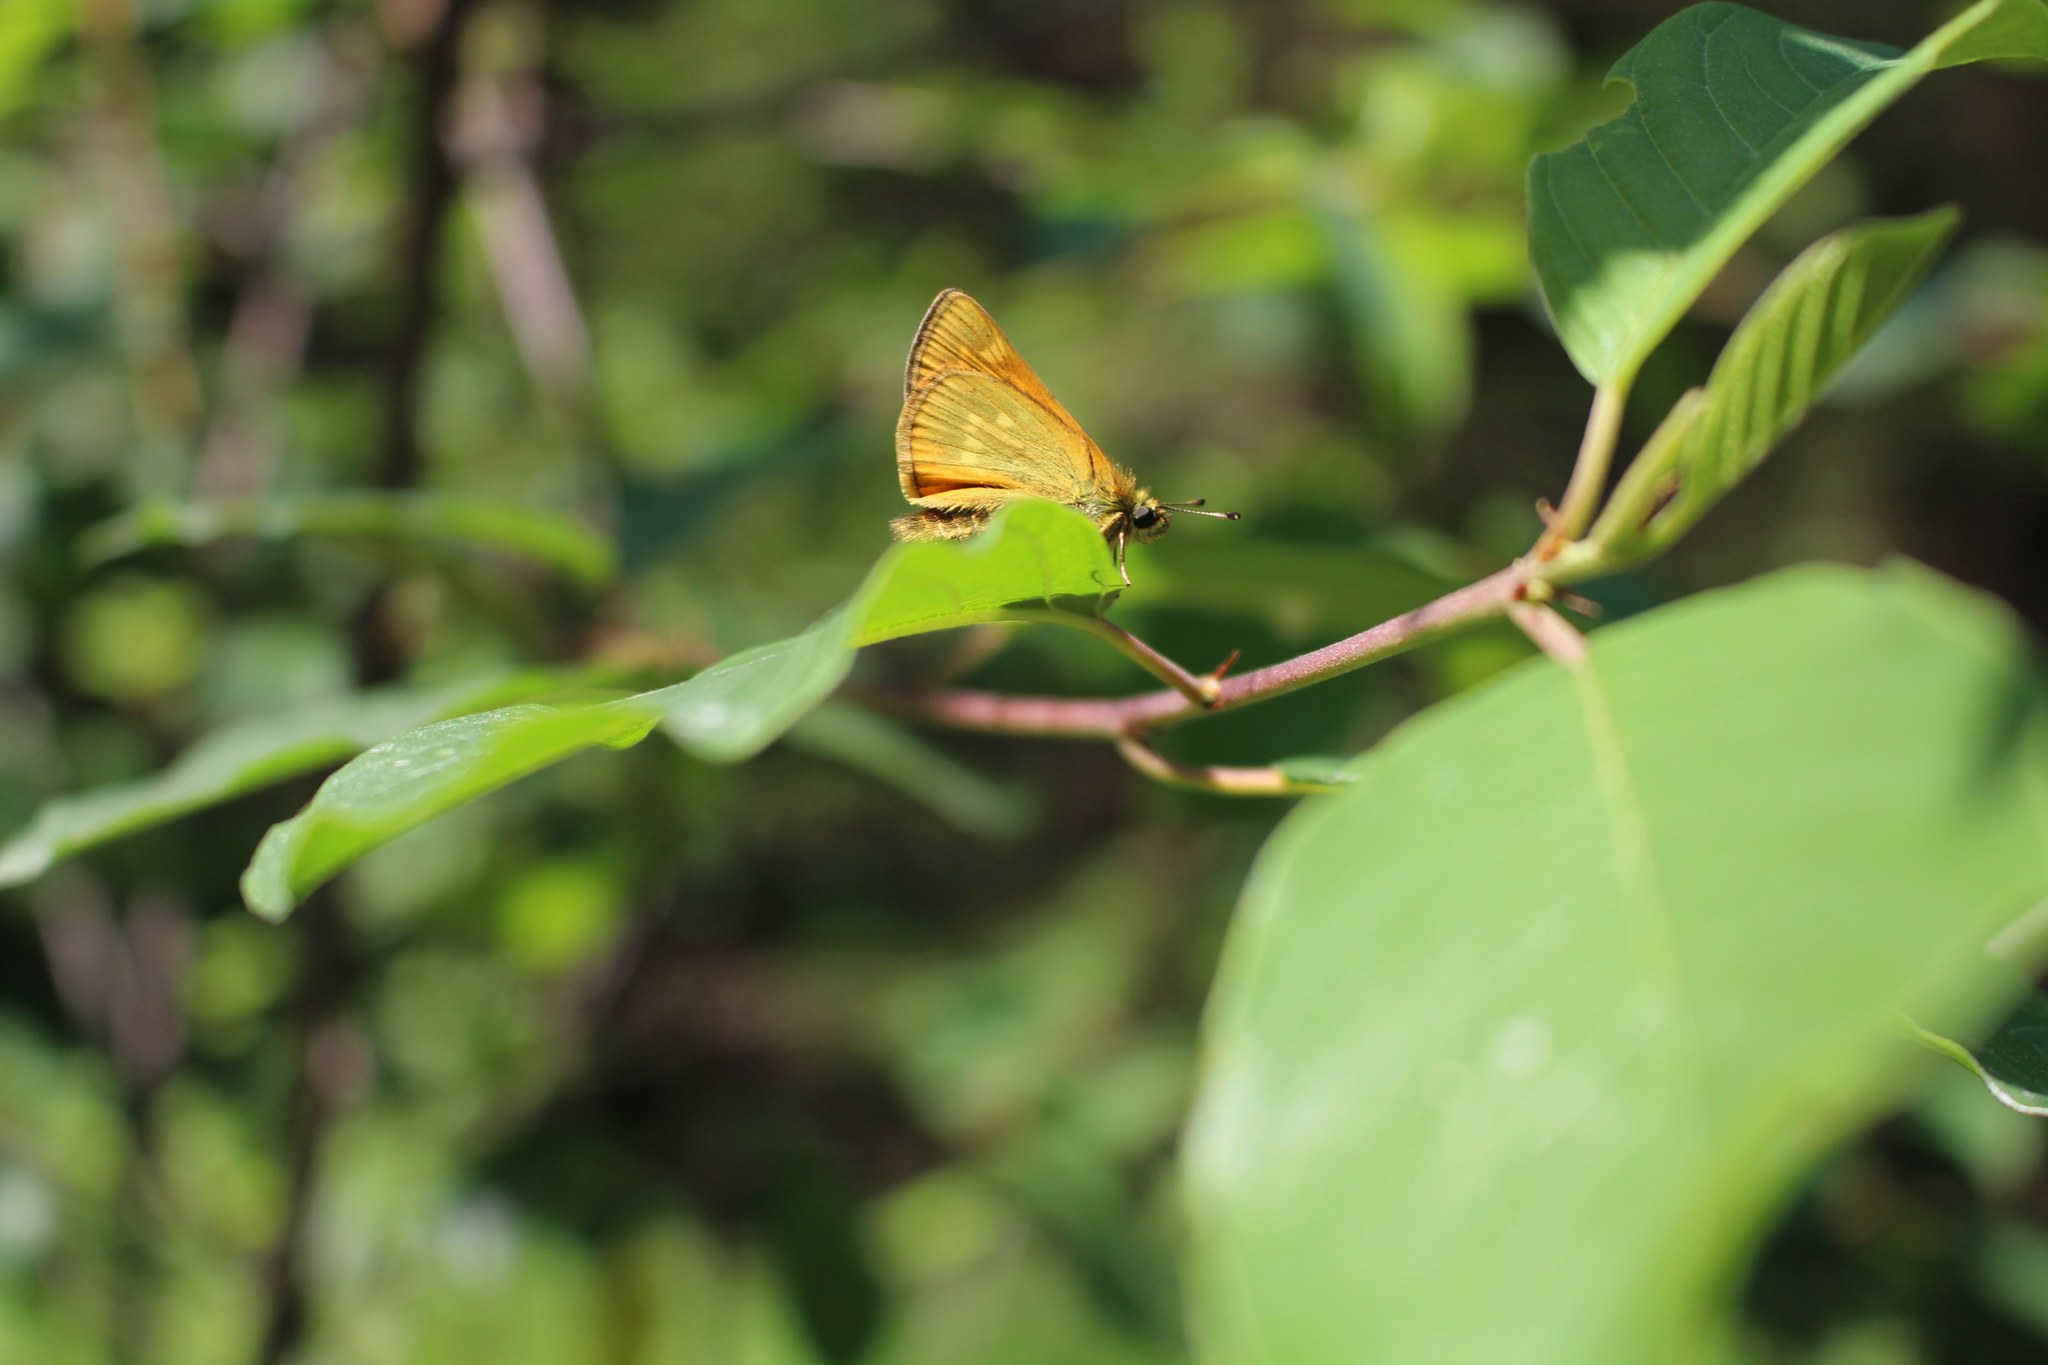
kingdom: Animalia
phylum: Arthropoda
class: Insecta
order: Lepidoptera
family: Hesperiidae
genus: Ochlodes
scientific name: Ochlodes venata
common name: Large skipper
